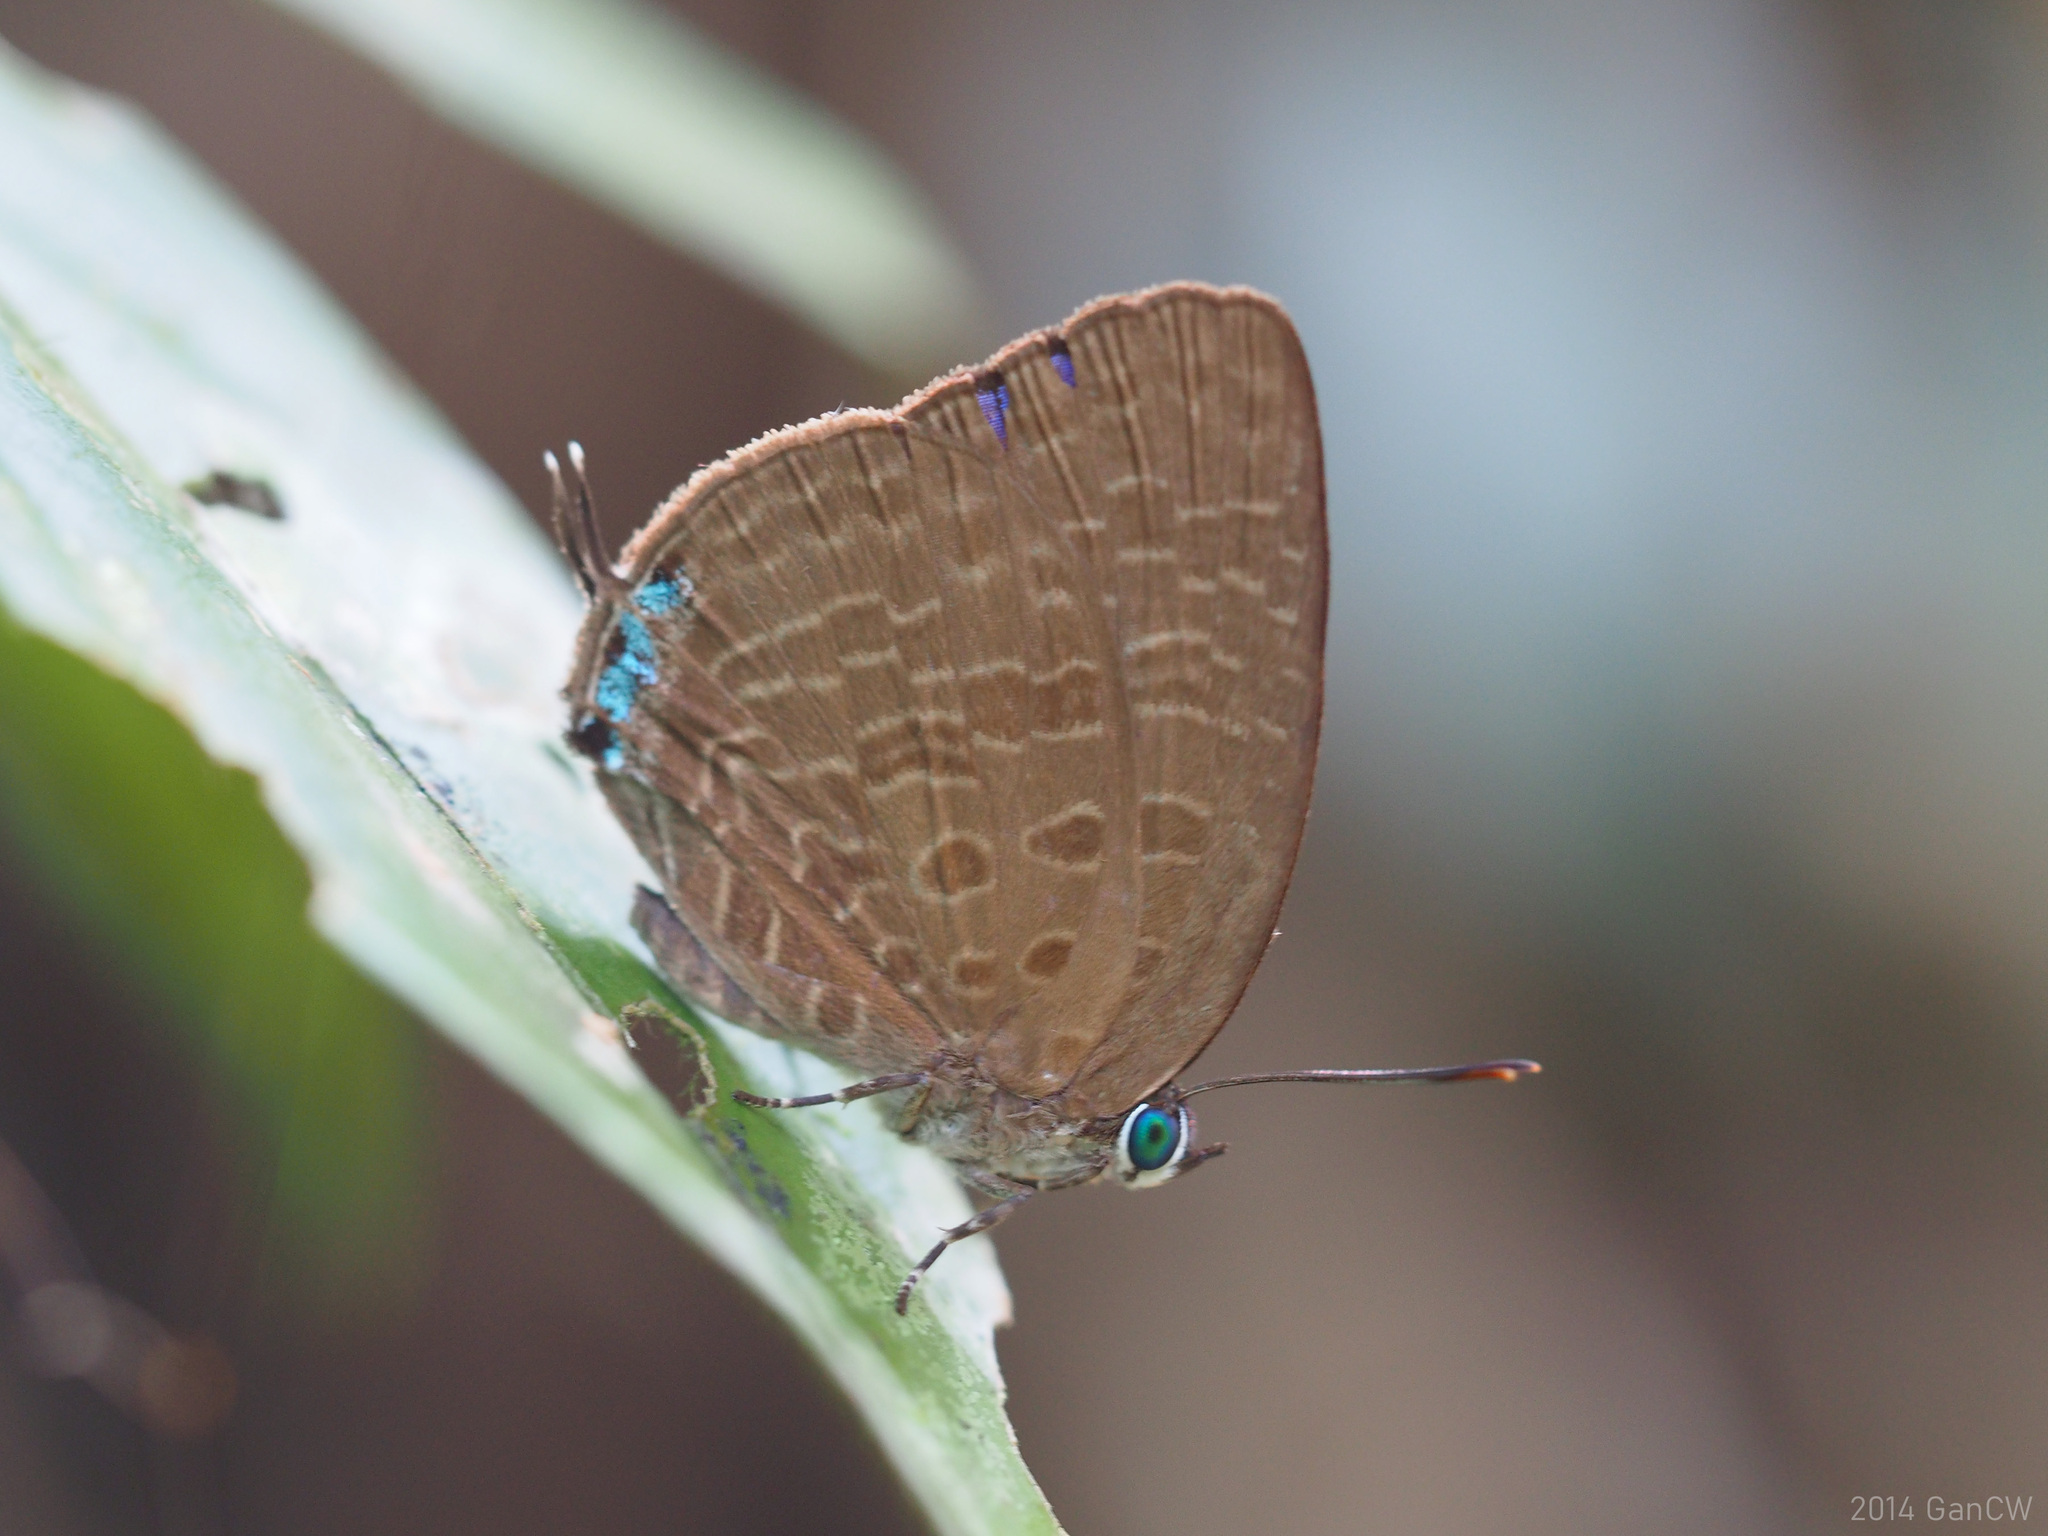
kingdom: Animalia
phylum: Arthropoda
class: Insecta
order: Lepidoptera
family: Lycaenidae
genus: Arhopala
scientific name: Arhopala elopura
